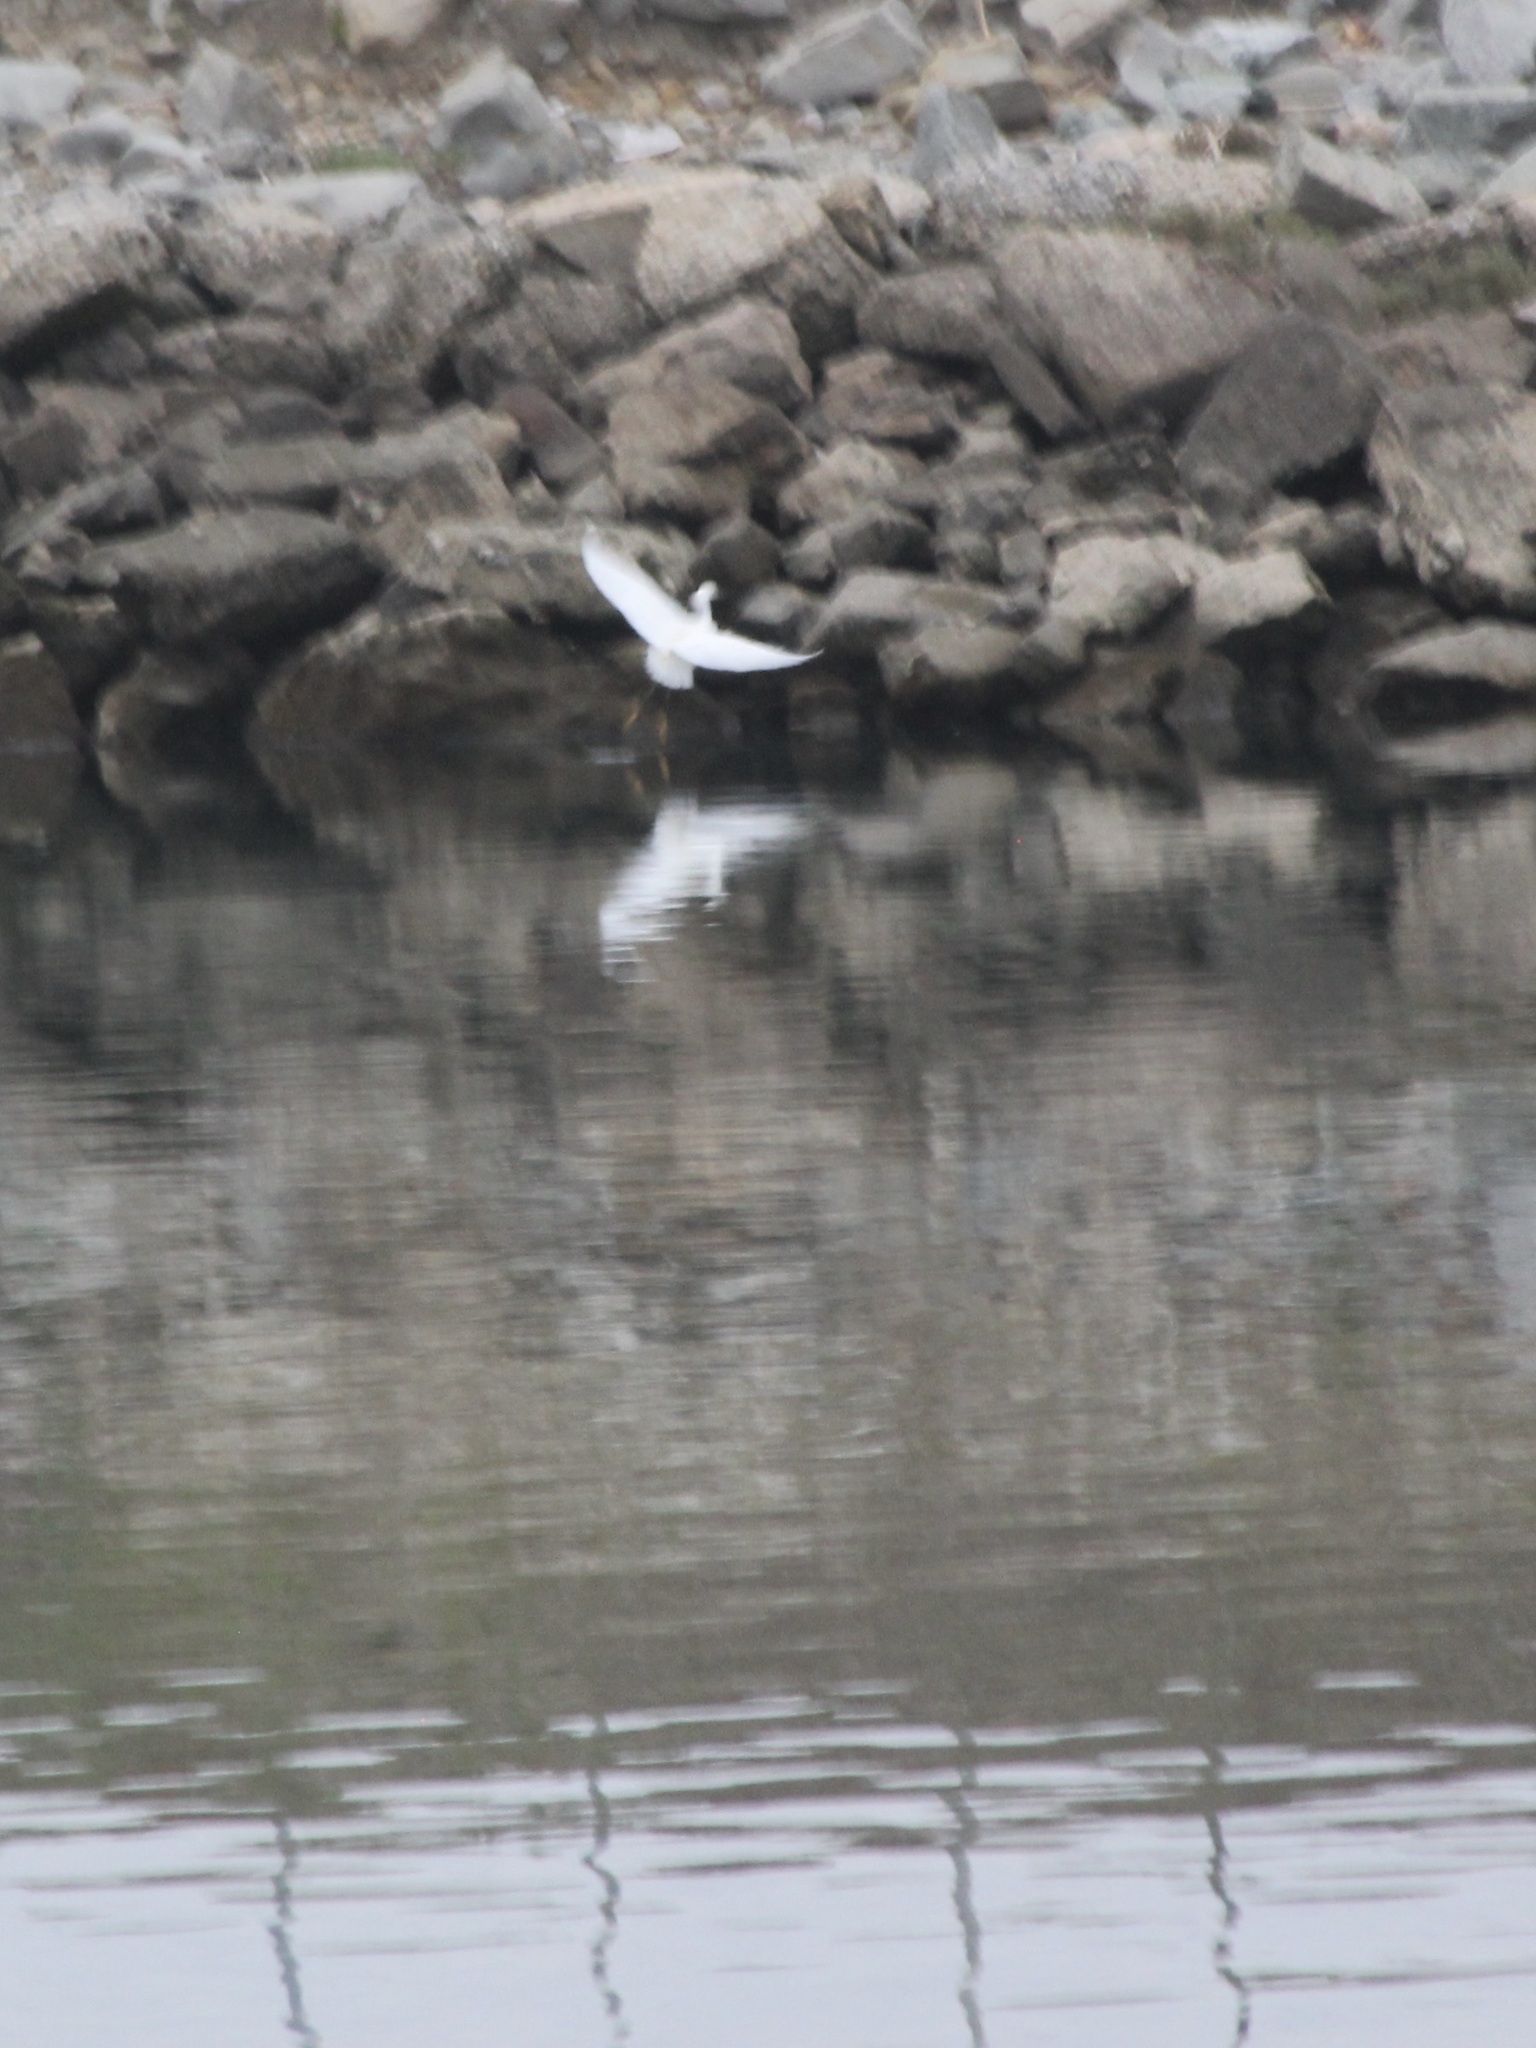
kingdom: Animalia
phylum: Chordata
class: Aves
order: Pelecaniformes
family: Ardeidae
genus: Egretta
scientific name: Egretta thula
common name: Snowy egret
